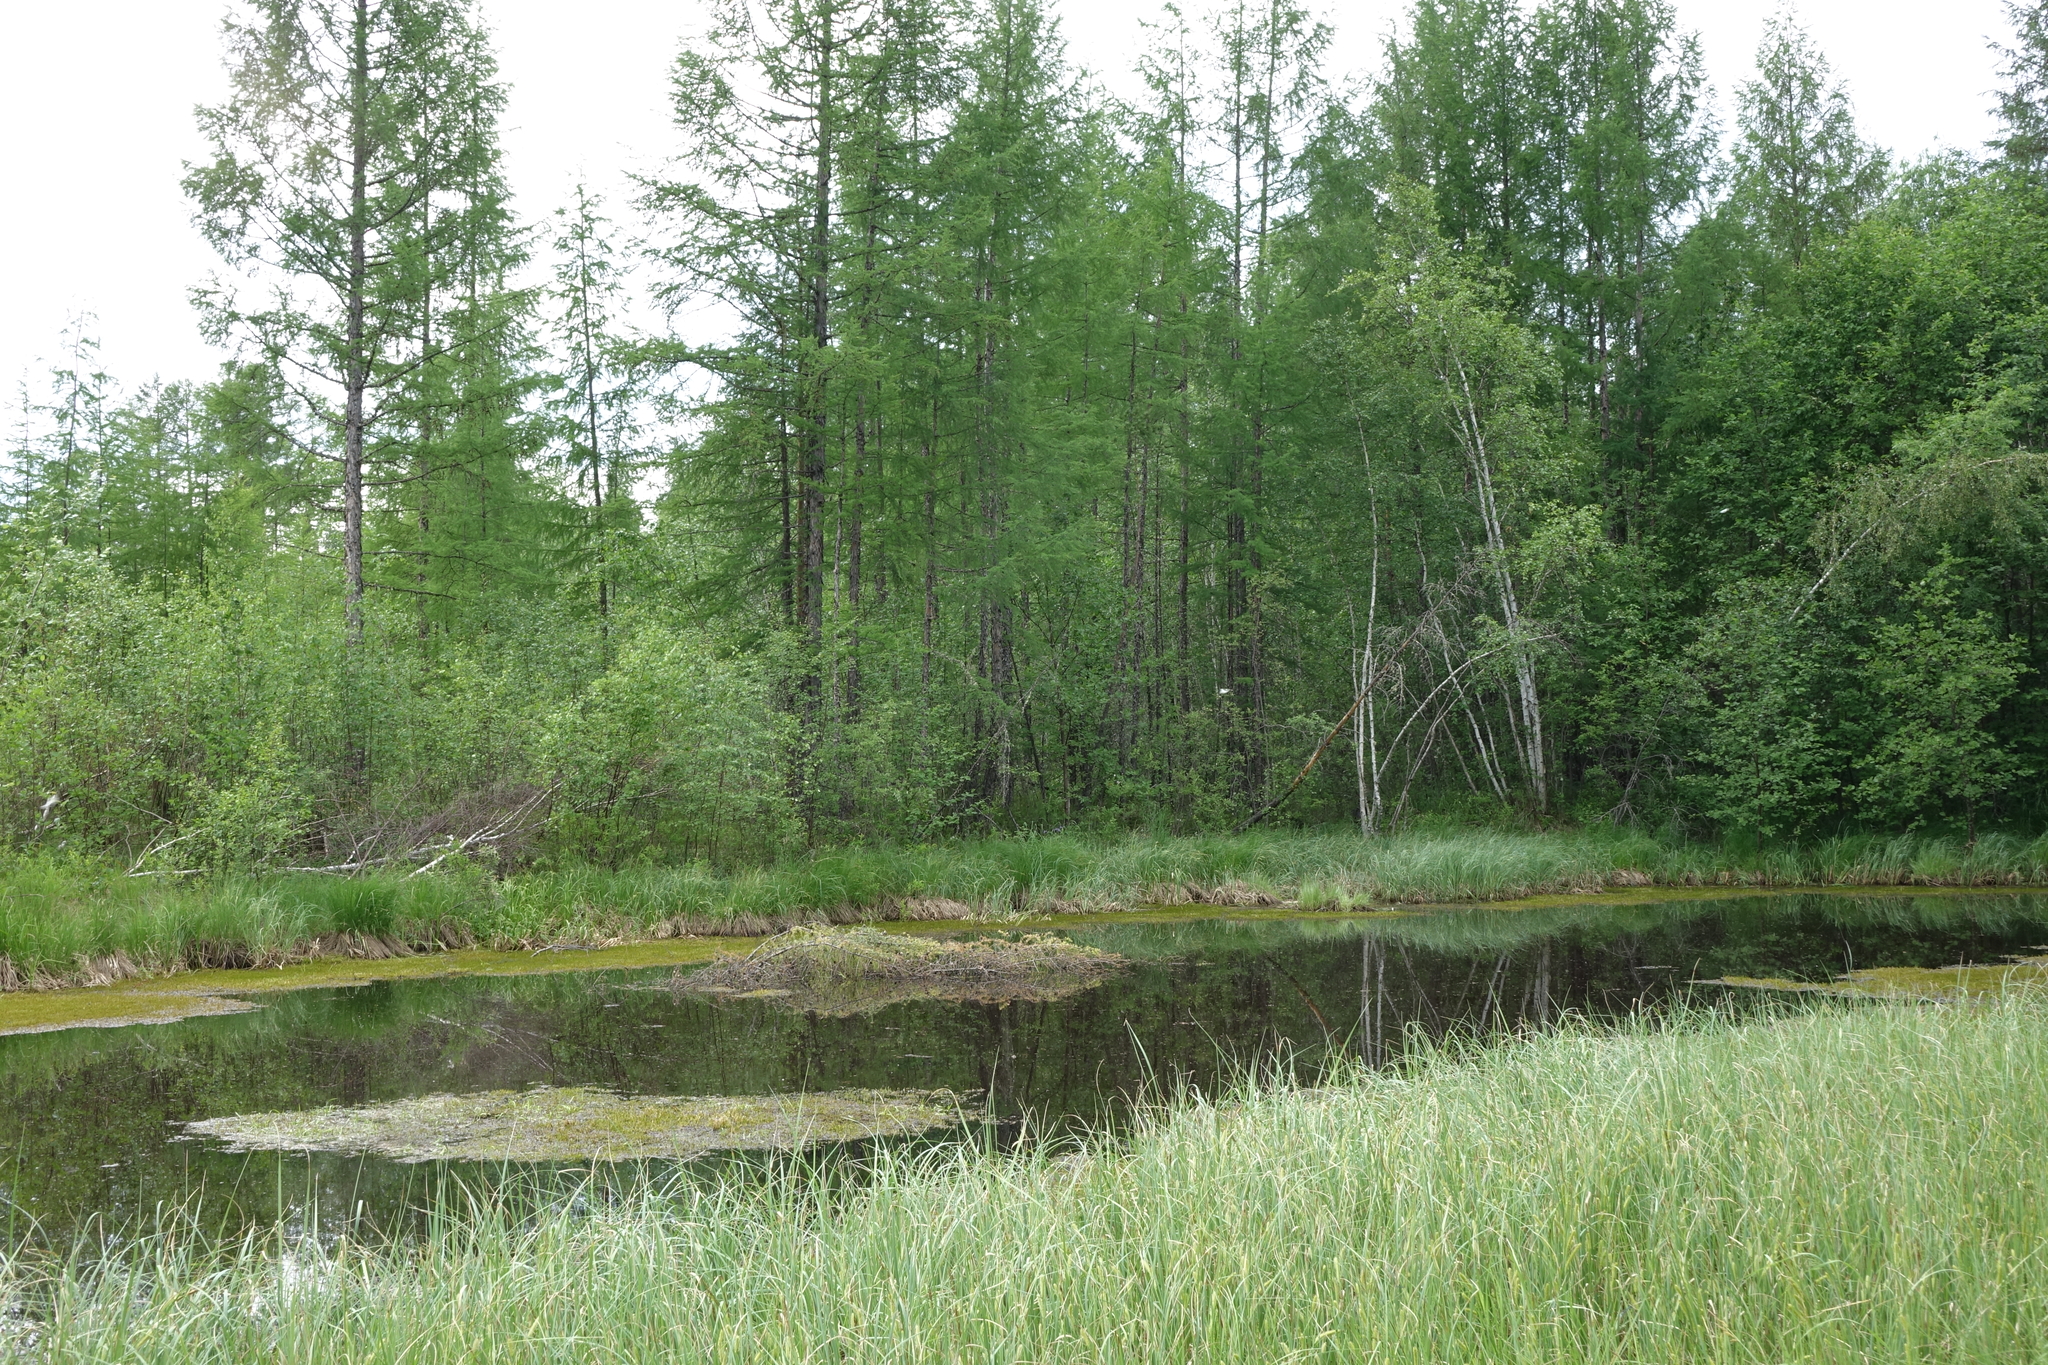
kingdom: Plantae
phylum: Tracheophyta
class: Liliopsida
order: Poales
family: Cyperaceae
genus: Carex
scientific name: Carex rostrata
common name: Bottle sedge
